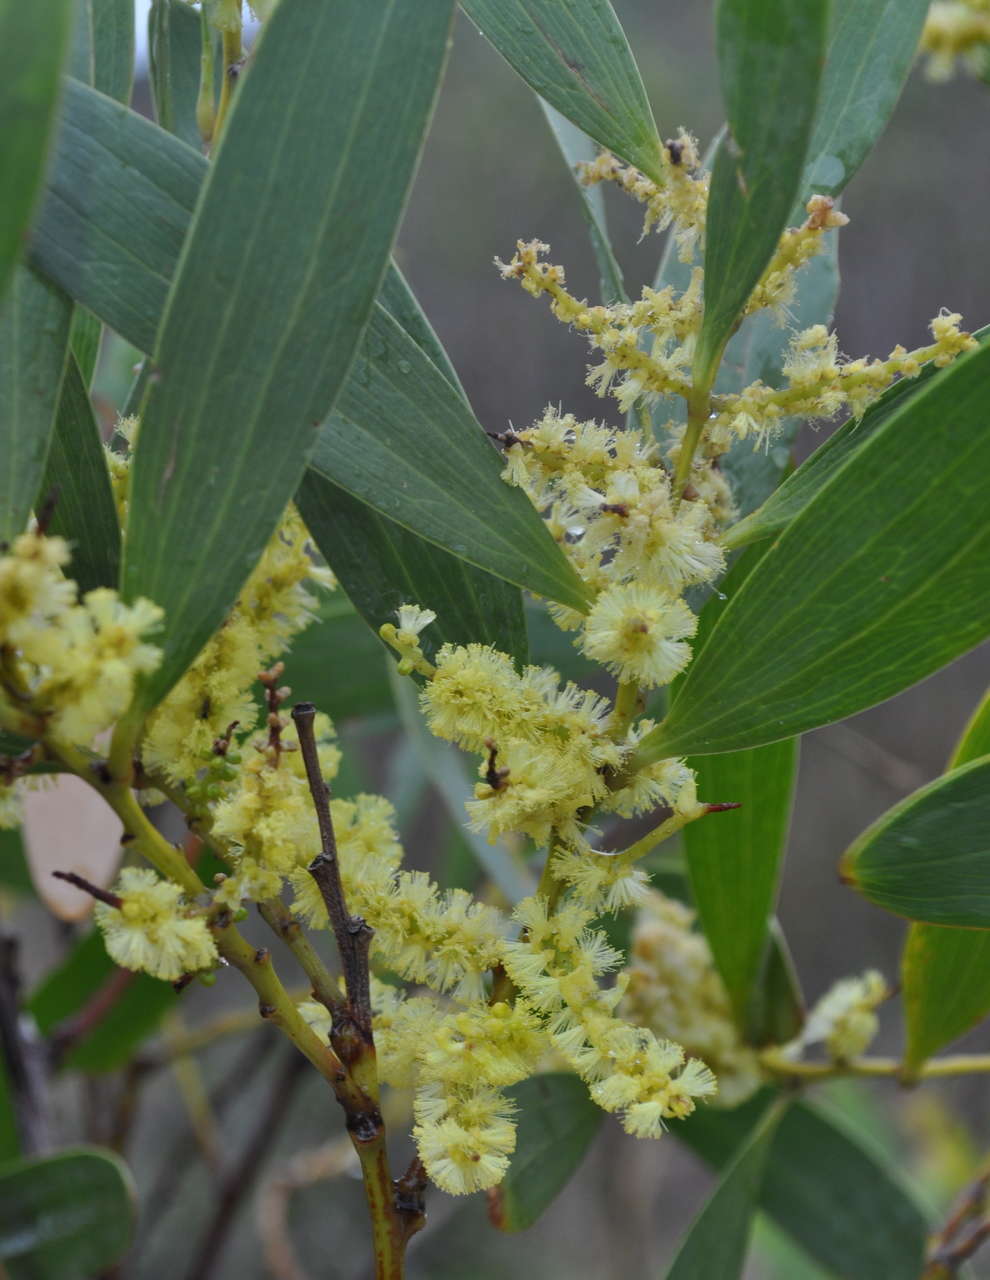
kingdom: Plantae
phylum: Tracheophyta
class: Magnoliopsida
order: Fabales
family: Fabaceae
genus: Acacia
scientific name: Acacia longifolia
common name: Sydney golden wattle
